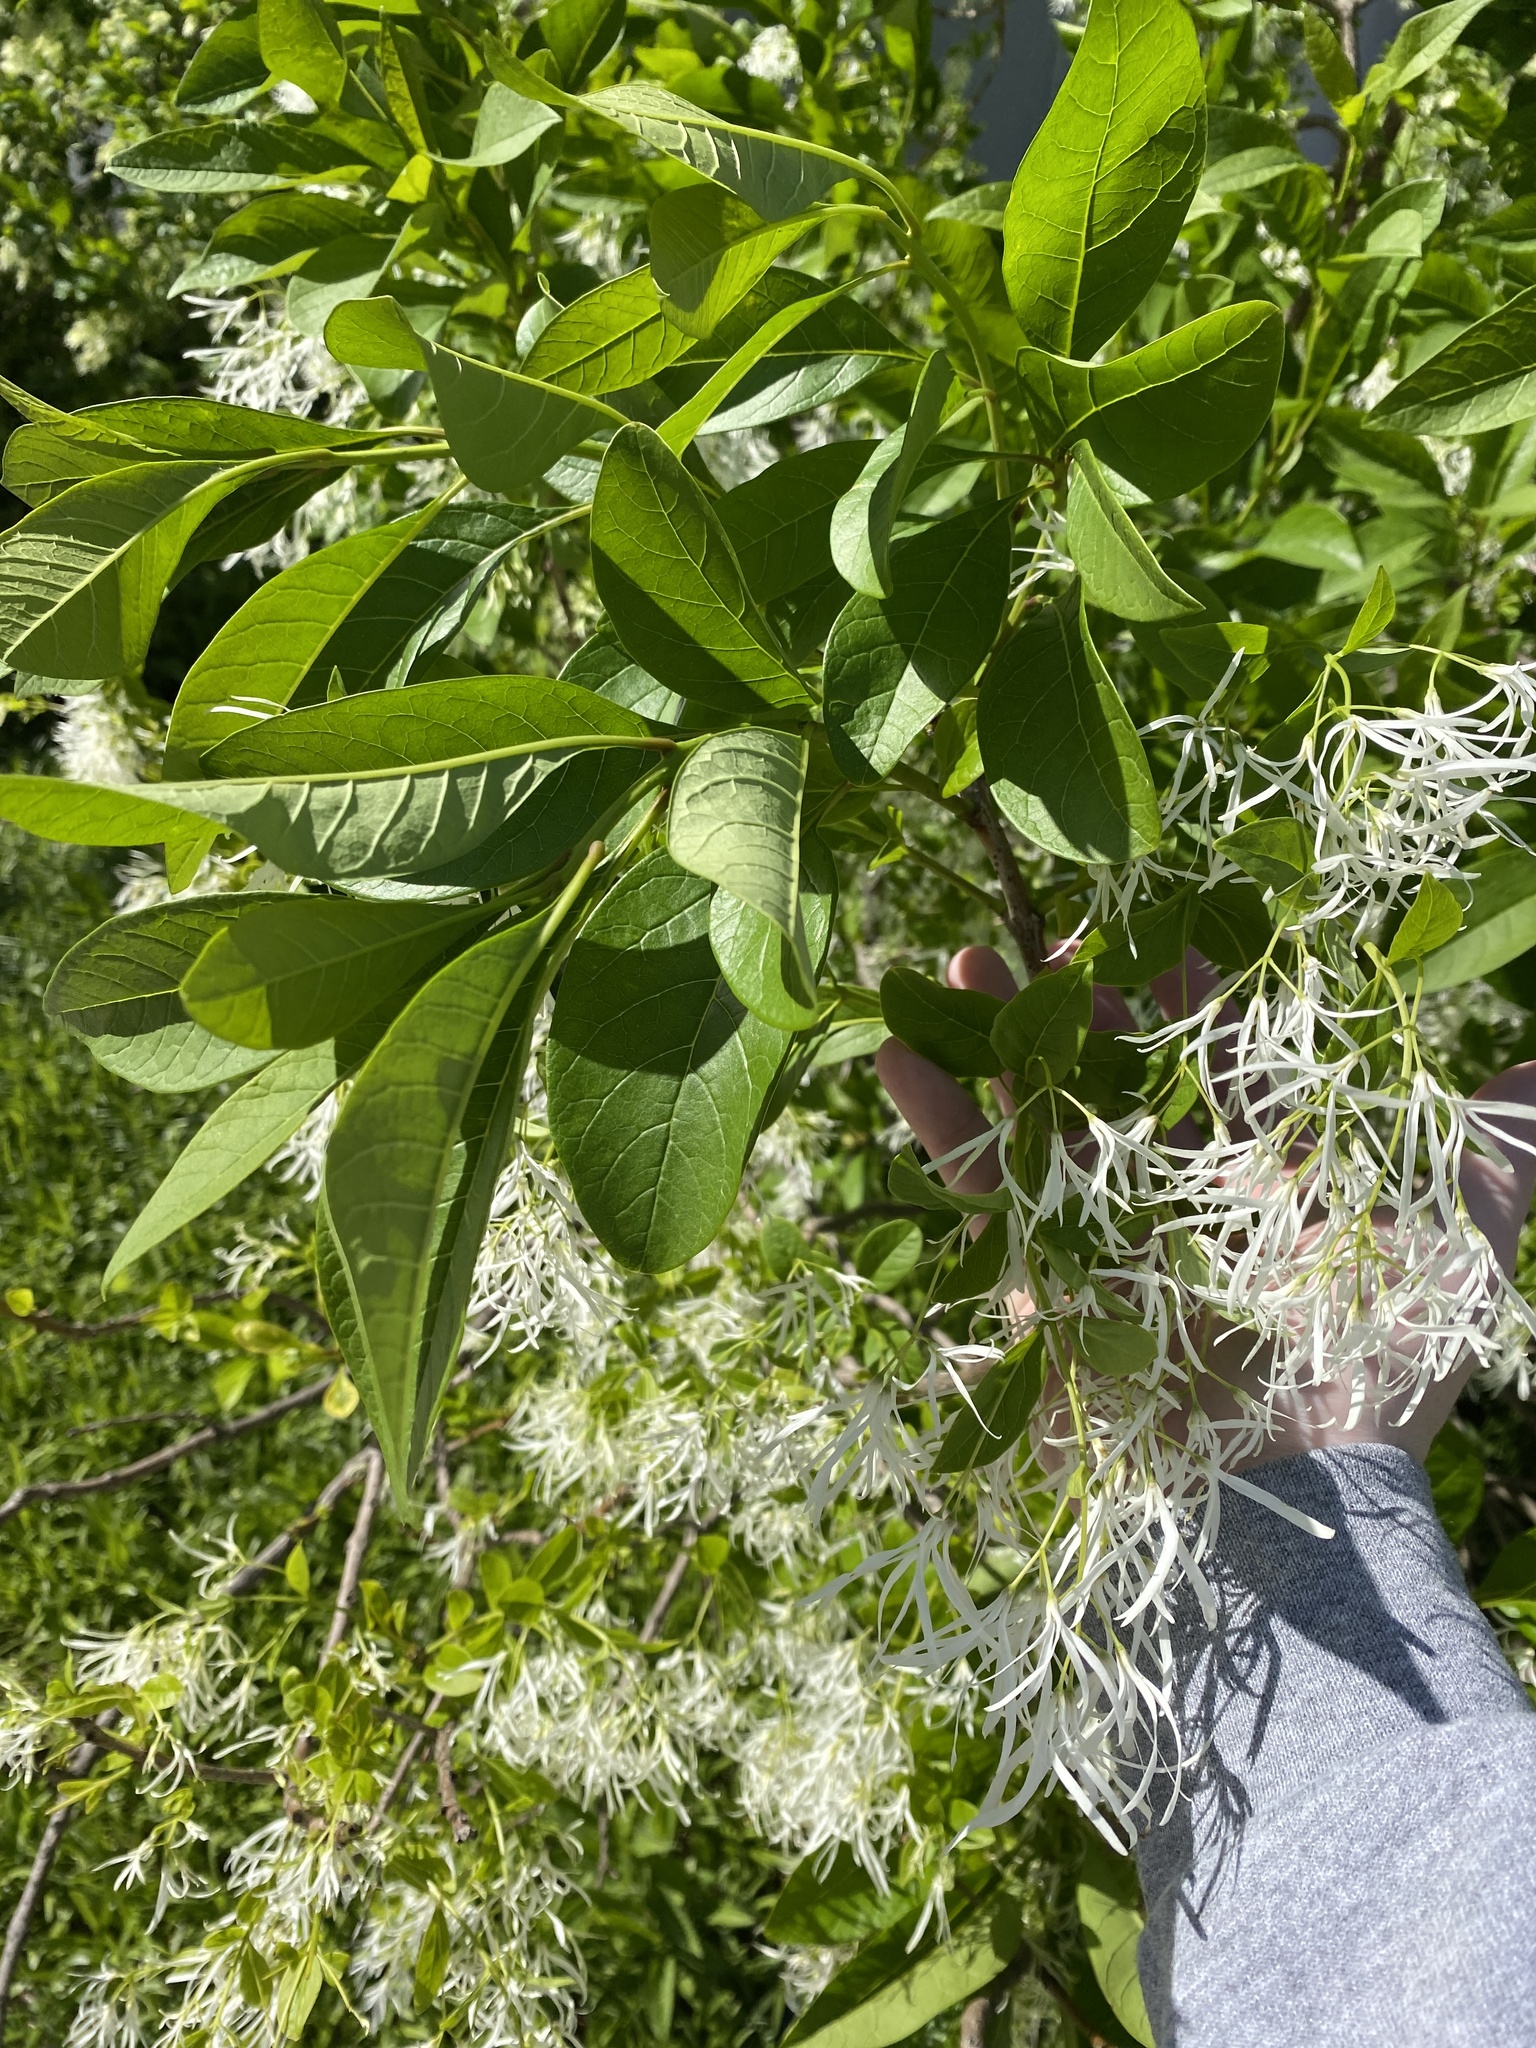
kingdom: Plantae
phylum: Tracheophyta
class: Magnoliopsida
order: Lamiales
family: Oleaceae
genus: Chionanthus
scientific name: Chionanthus virginicus
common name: American fringetree
